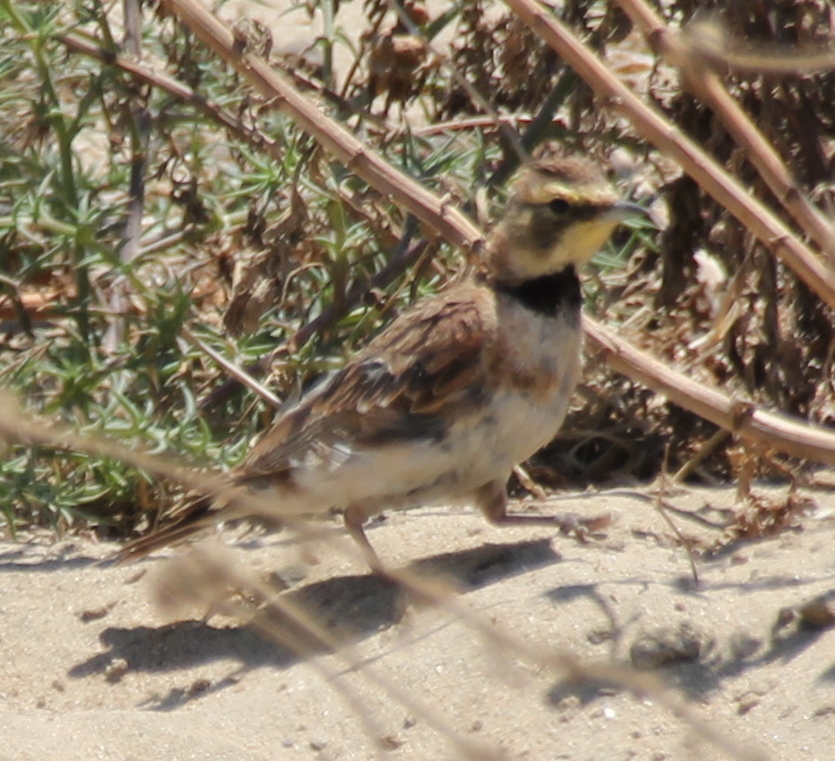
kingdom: Animalia
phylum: Chordata
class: Aves
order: Passeriformes
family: Alaudidae
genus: Eremophila
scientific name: Eremophila alpestris
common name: Horned lark
